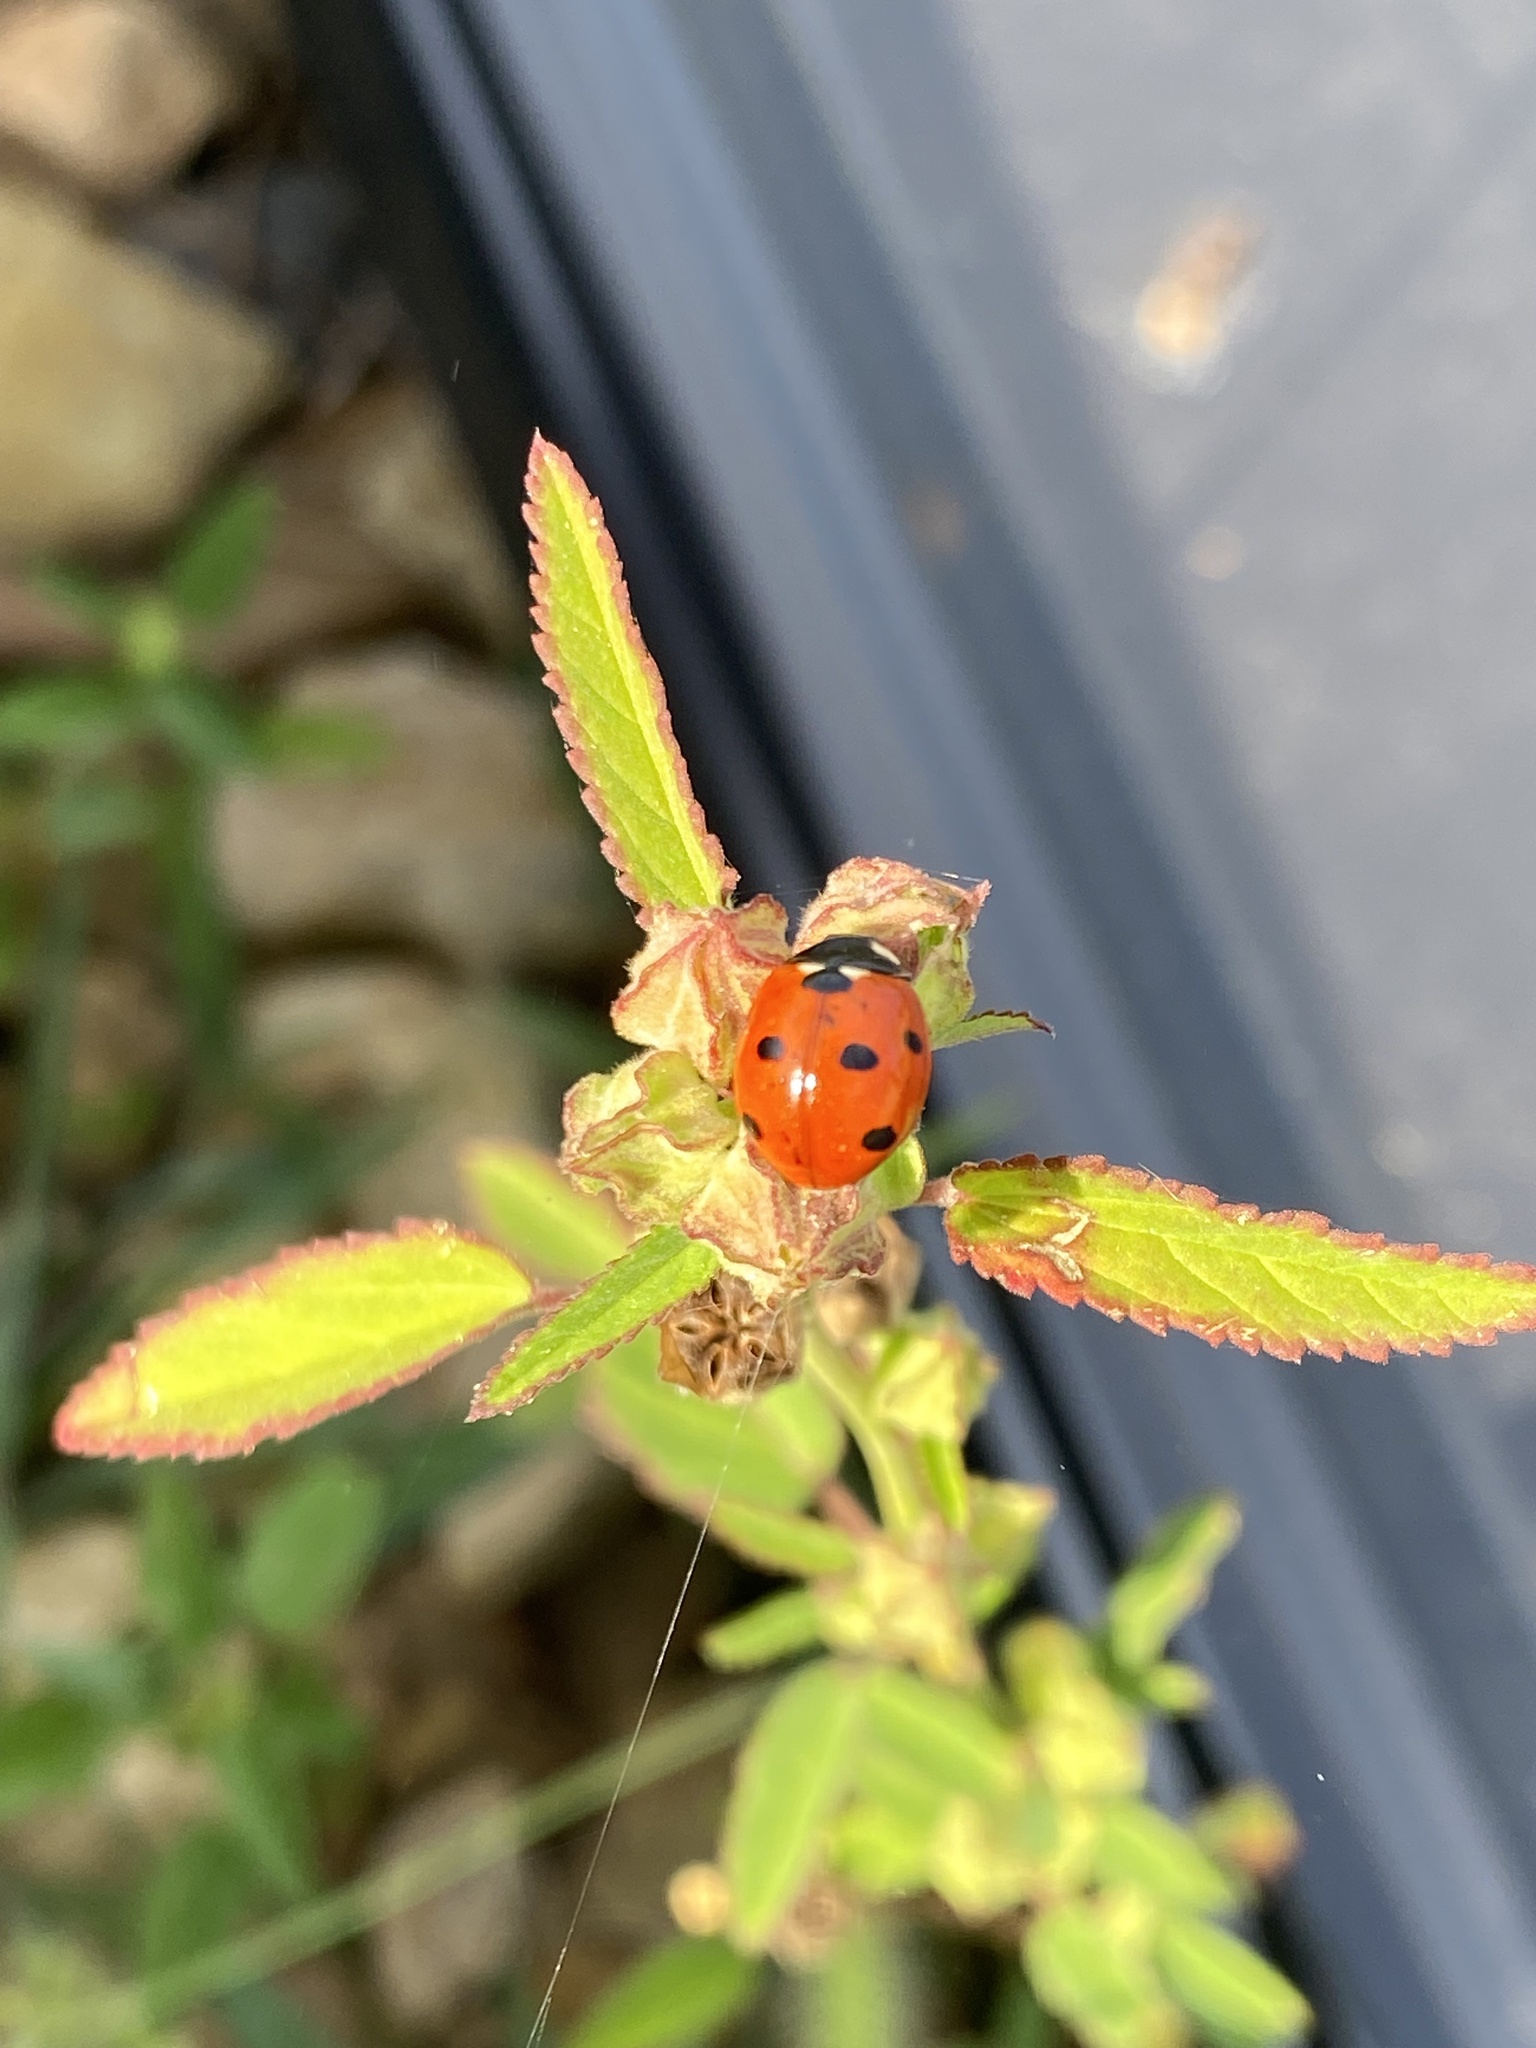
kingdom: Animalia
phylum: Arthropoda
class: Insecta
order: Coleoptera
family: Coccinellidae
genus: Coccinella
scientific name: Coccinella septempunctata
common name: Sevenspotted lady beetle
